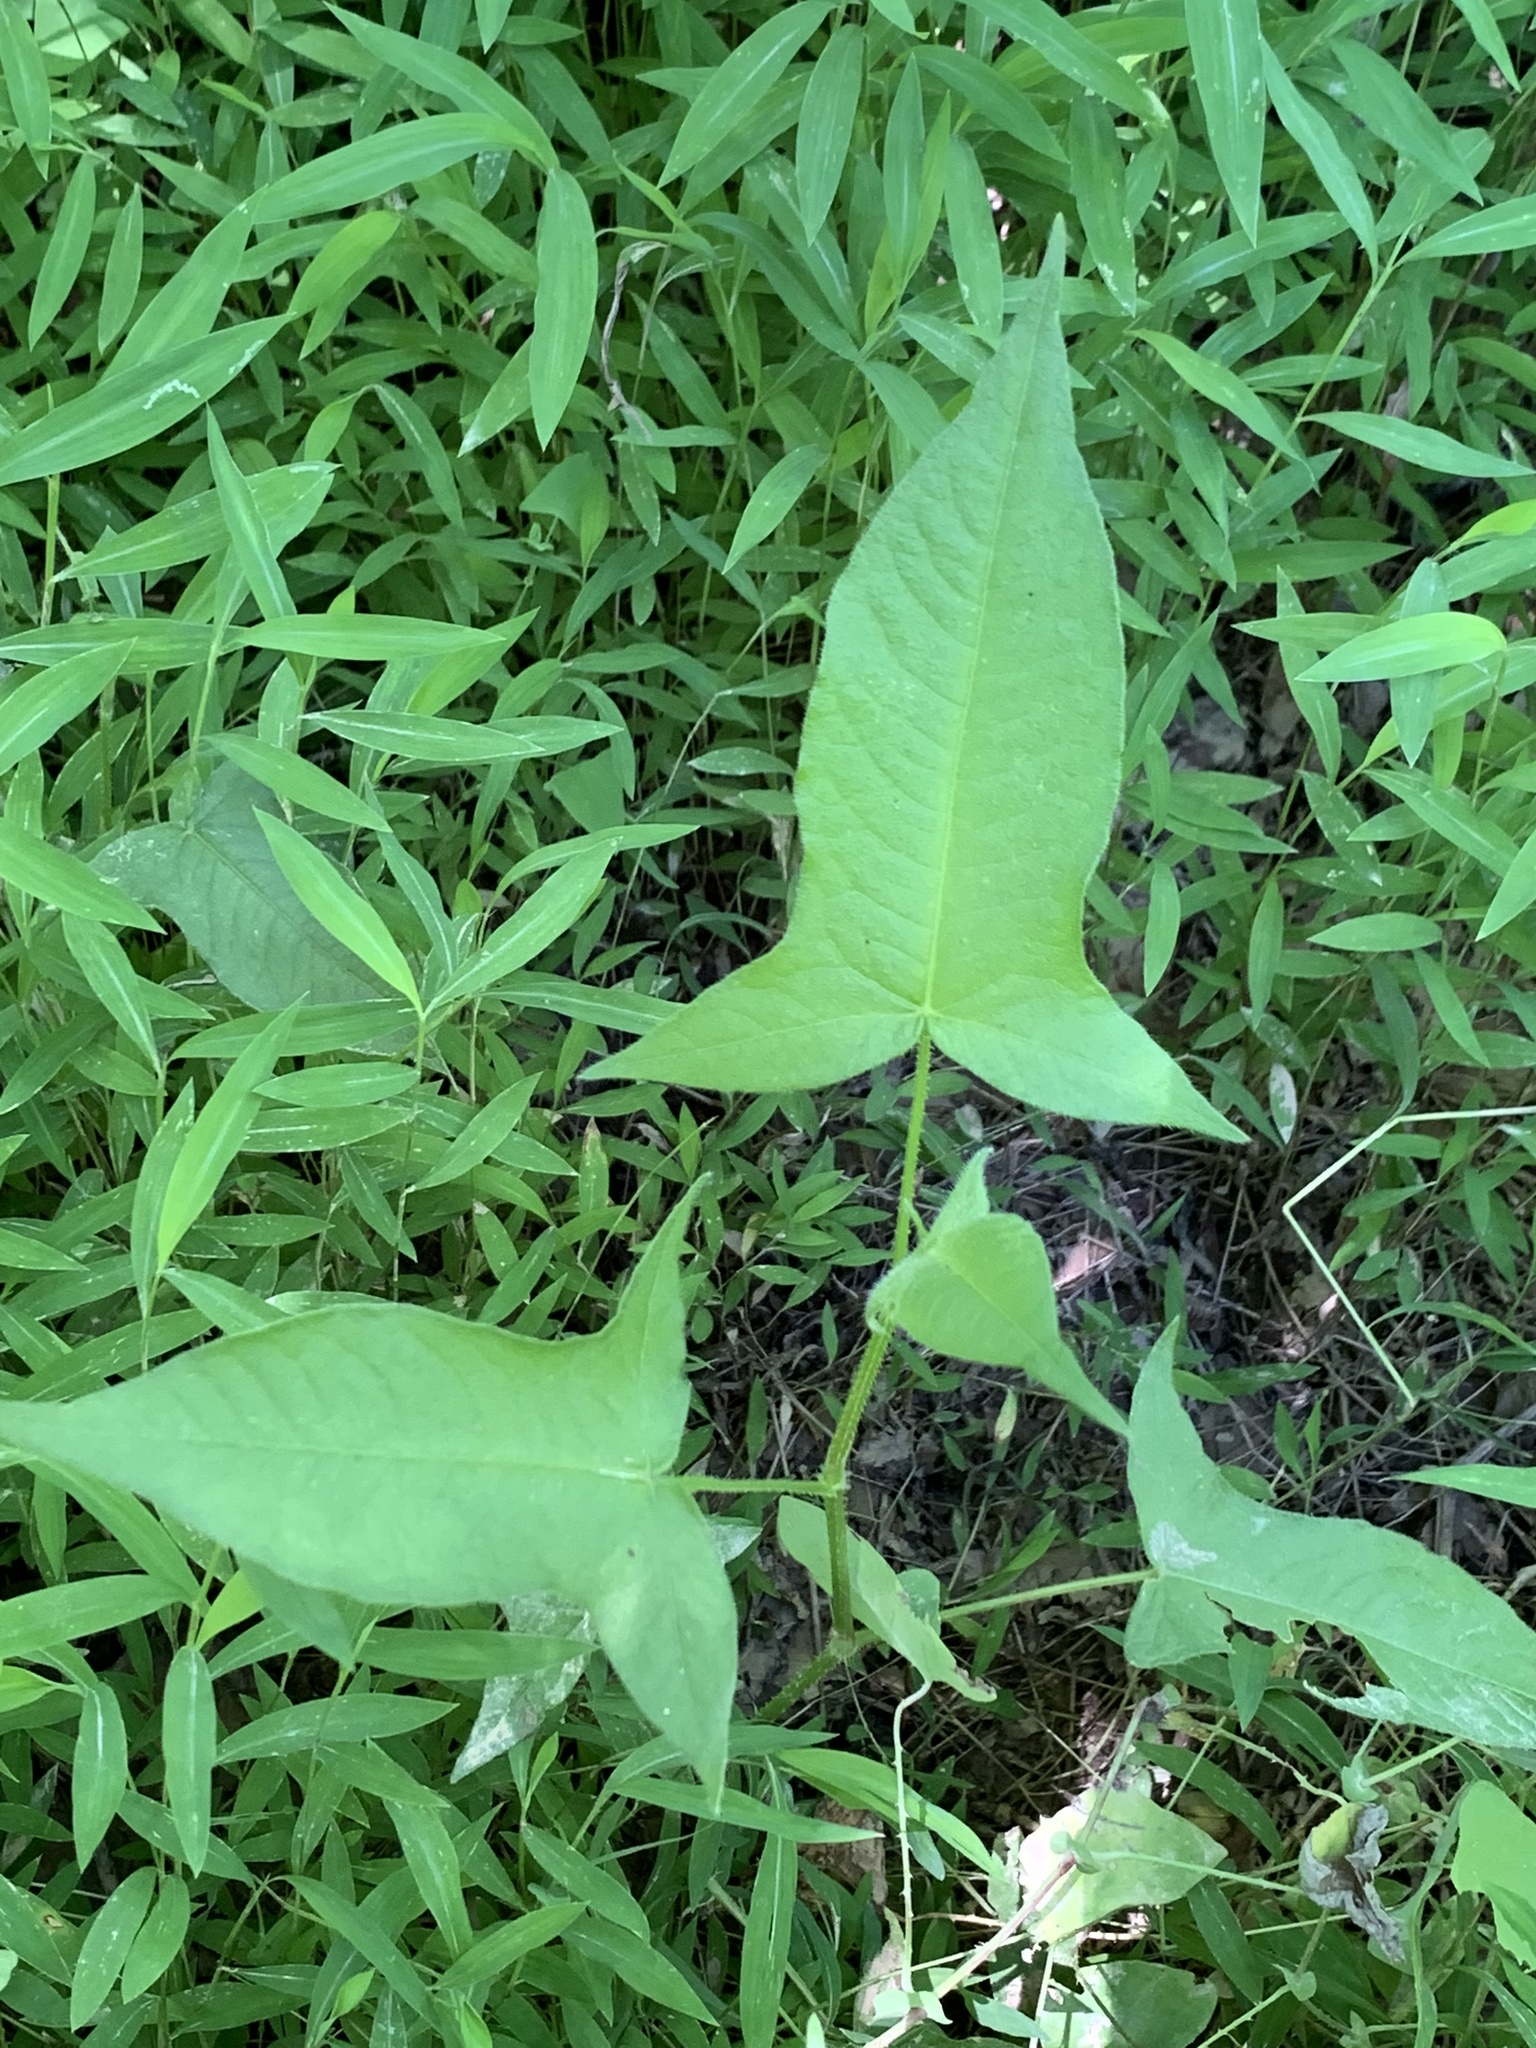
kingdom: Plantae
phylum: Tracheophyta
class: Magnoliopsida
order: Caryophyllales
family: Polygonaceae
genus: Persicaria
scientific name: Persicaria arifolia
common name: Halberd-leaved tear-thumb
